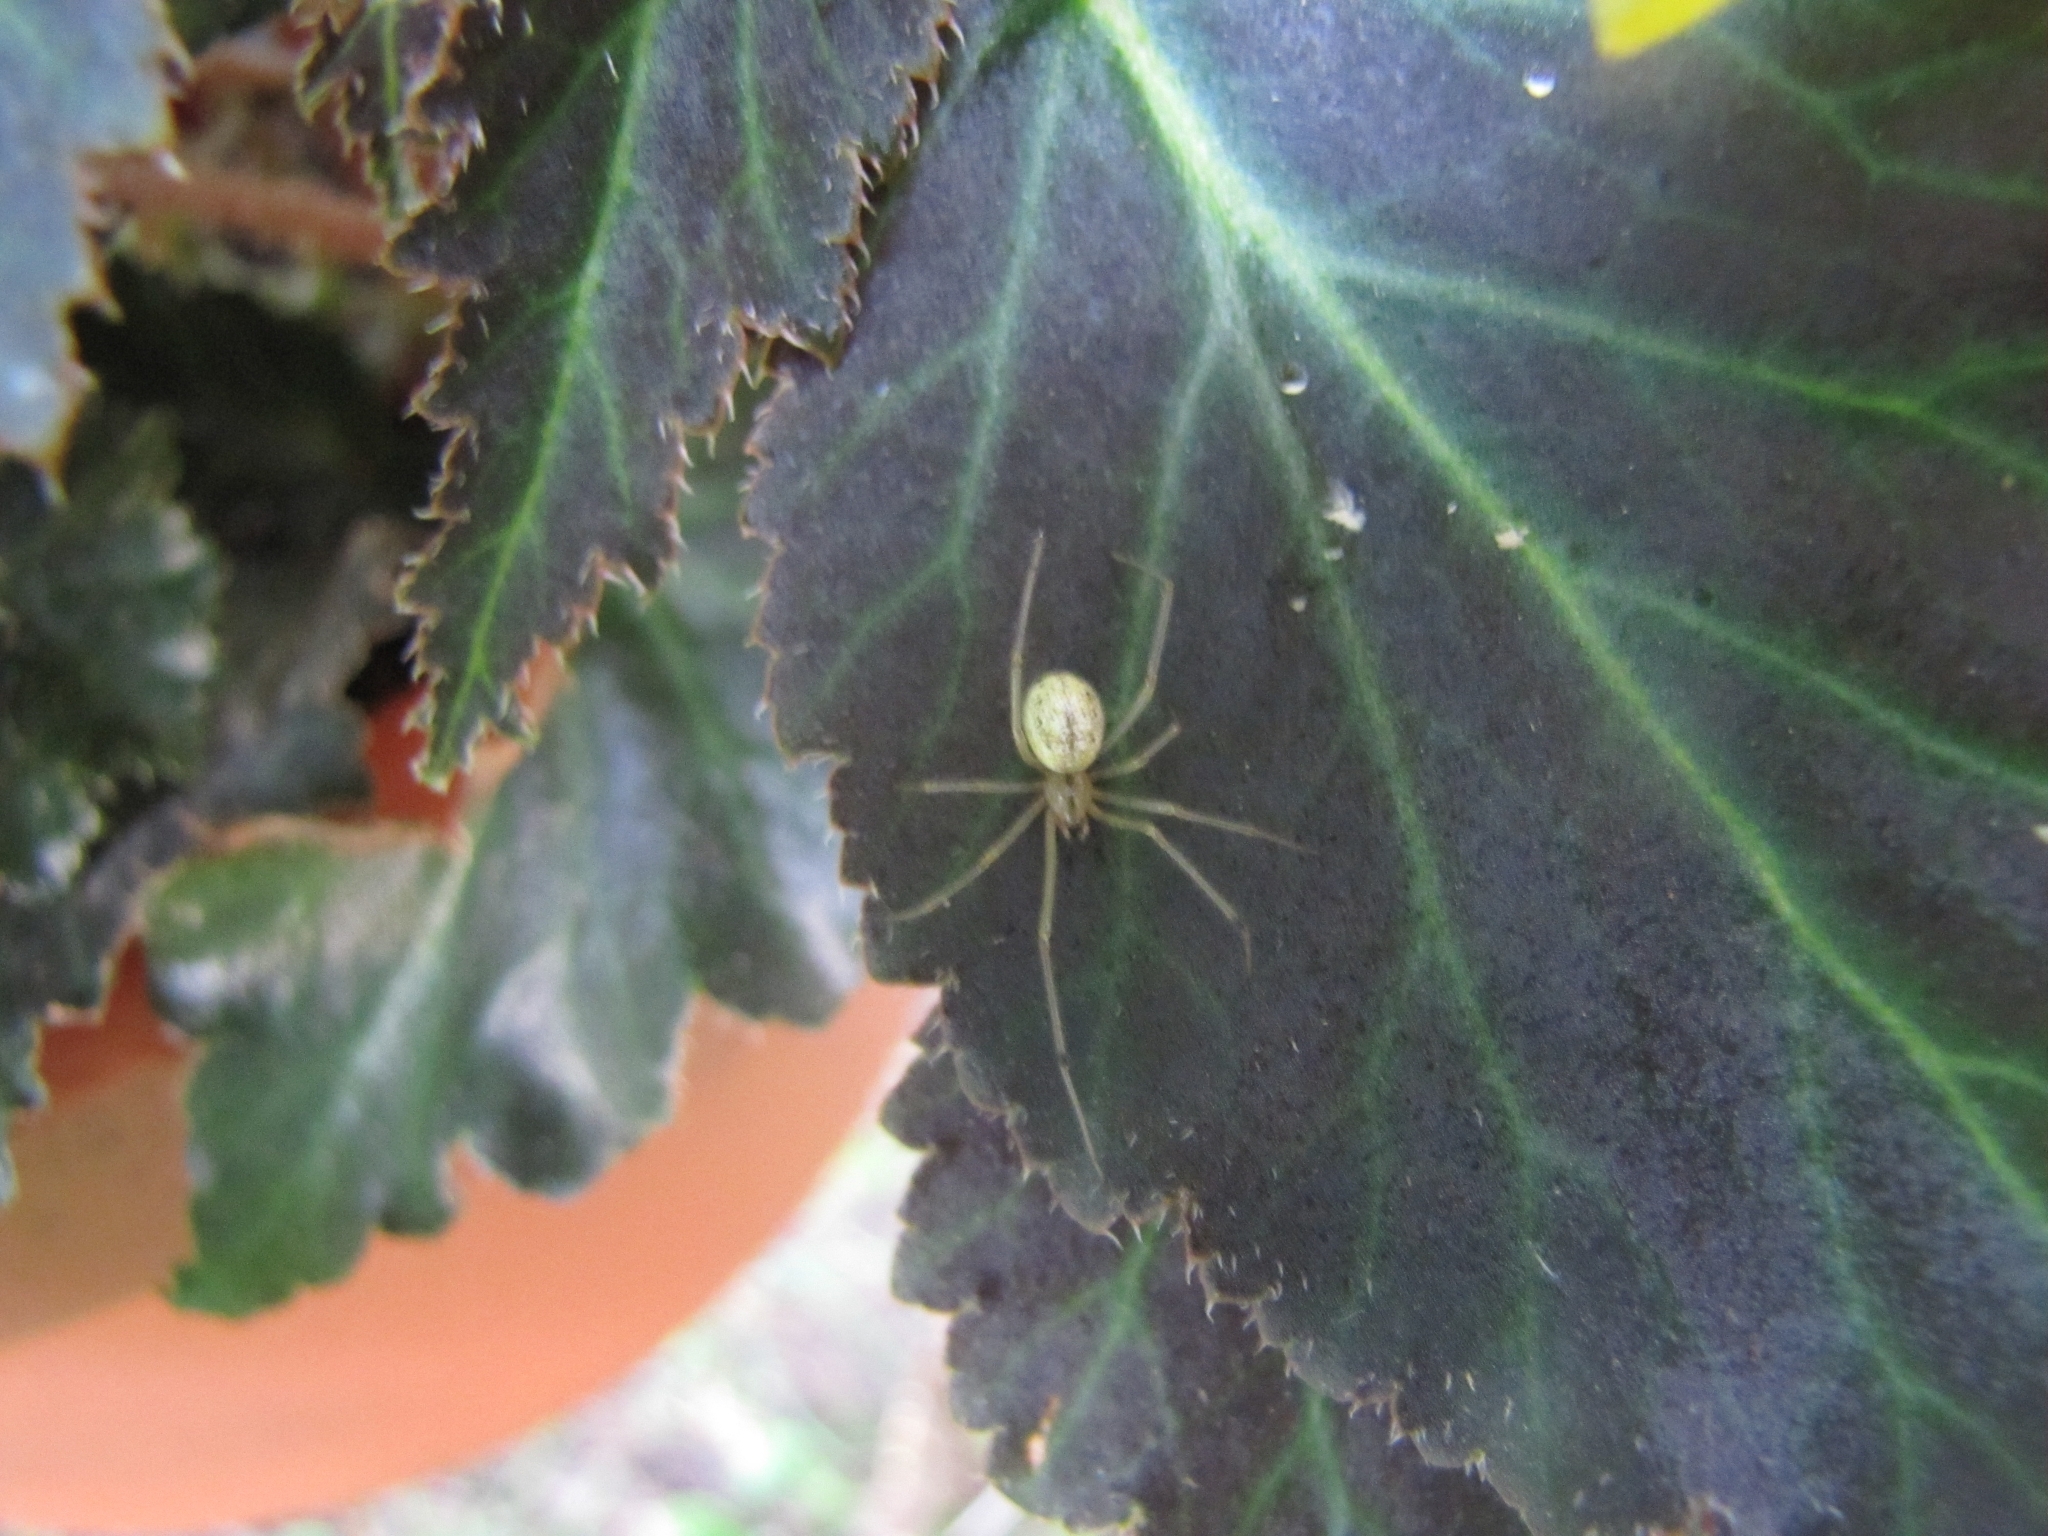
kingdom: Animalia
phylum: Arthropoda
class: Arachnida
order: Araneae
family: Theridiidae
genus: Enoplognatha
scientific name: Enoplognatha ovata
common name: Common candy-striped spider
